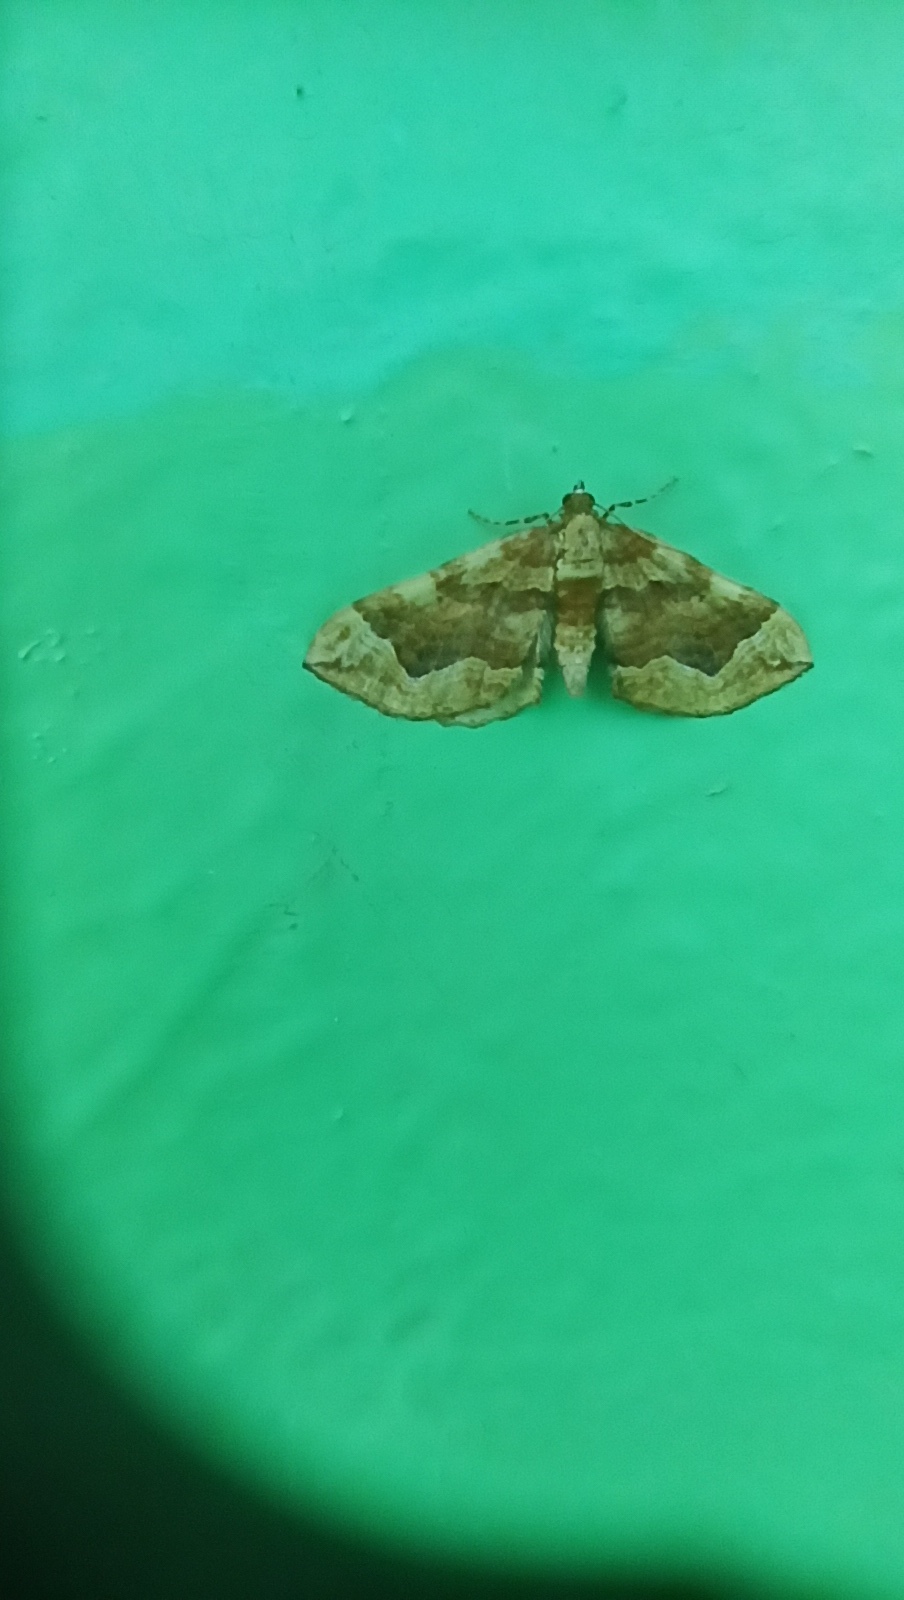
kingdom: Animalia
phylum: Arthropoda
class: Insecta
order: Lepidoptera
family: Geometridae
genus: Pelurga
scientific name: Pelurga comitata
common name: Dark spinach
